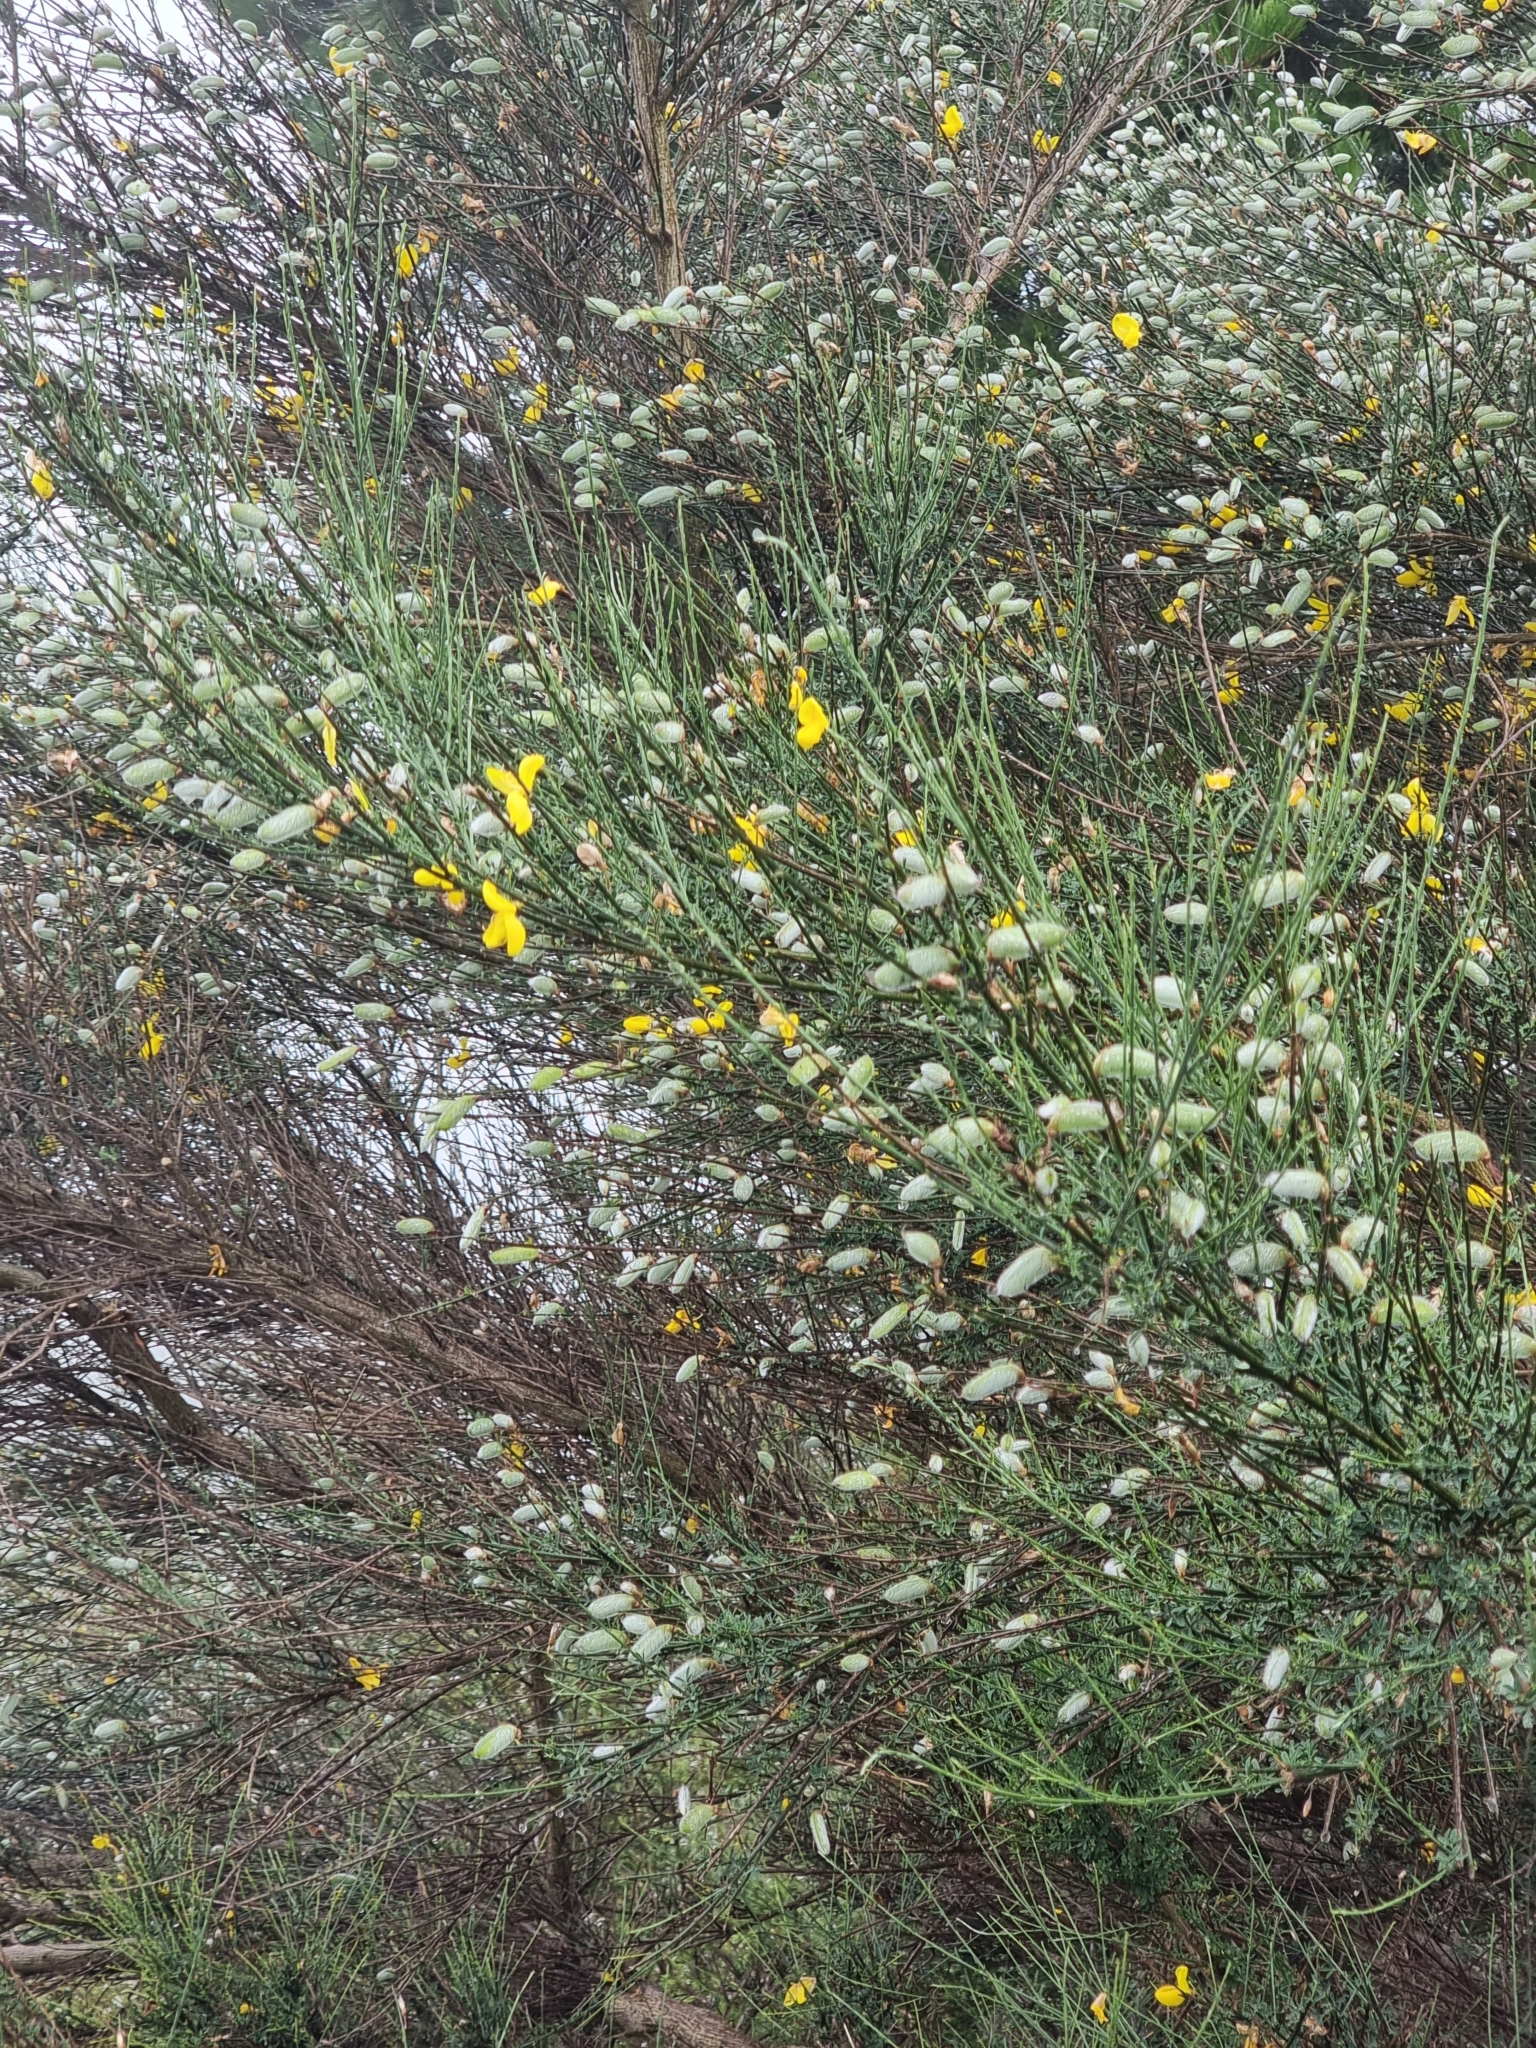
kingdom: Plantae
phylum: Tracheophyta
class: Magnoliopsida
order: Fabales
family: Fabaceae
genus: Cytisus
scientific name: Cytisus striatus
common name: Hairy-fruited broom
